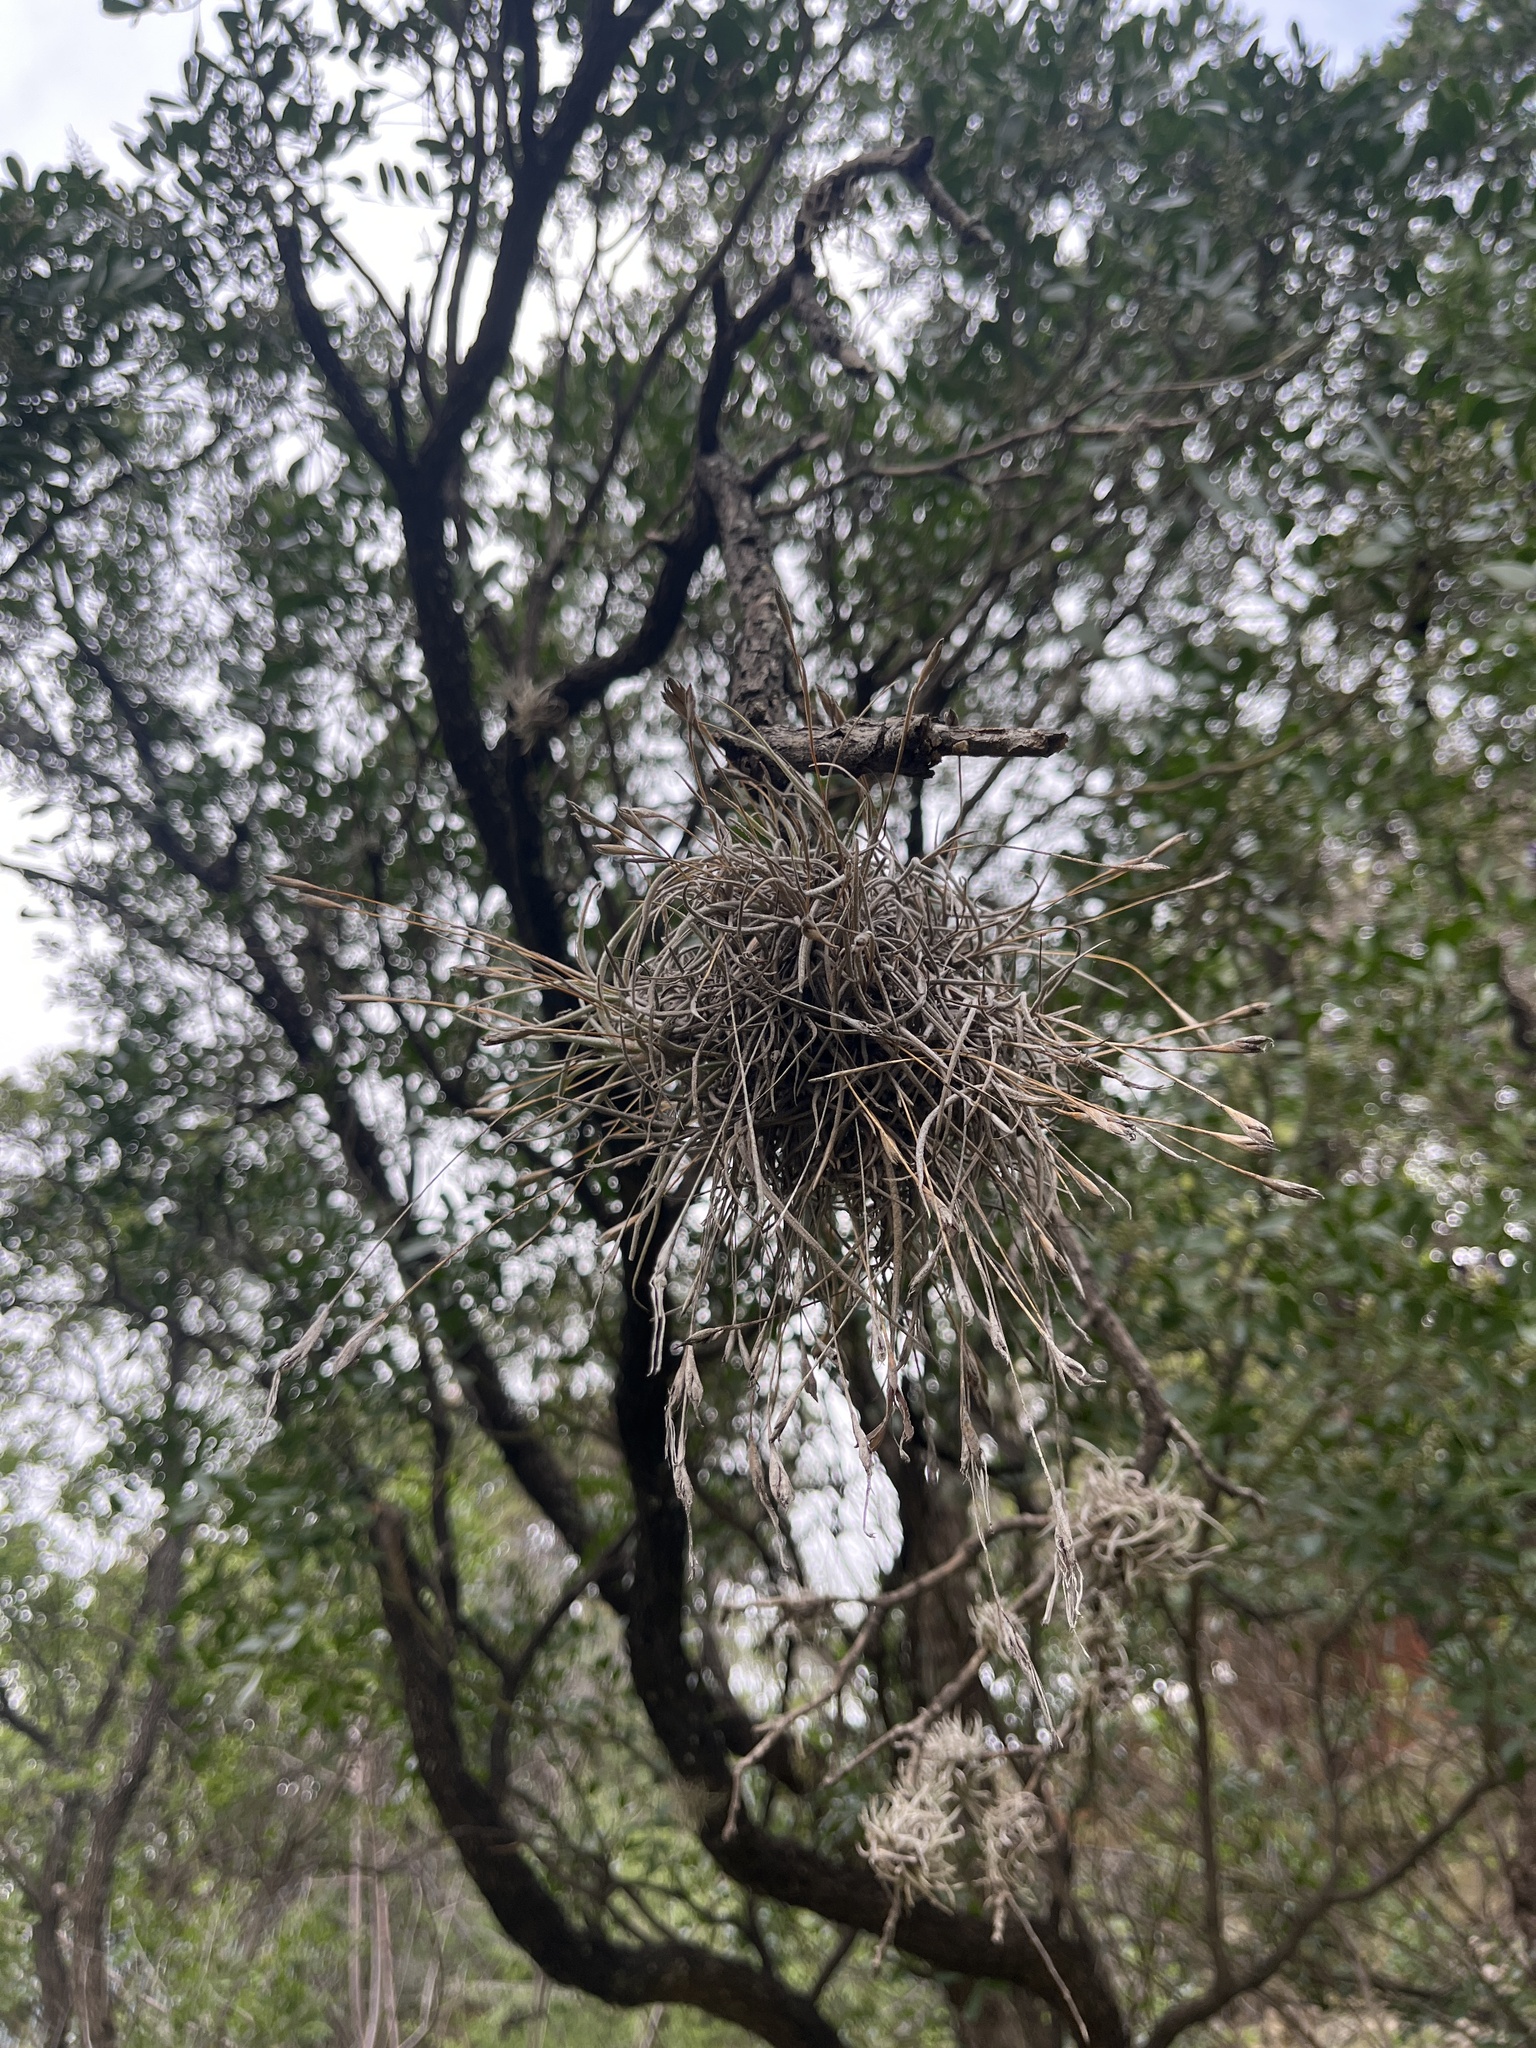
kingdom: Plantae
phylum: Tracheophyta
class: Liliopsida
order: Poales
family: Bromeliaceae
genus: Tillandsia
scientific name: Tillandsia recurvata
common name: Small ballmoss
